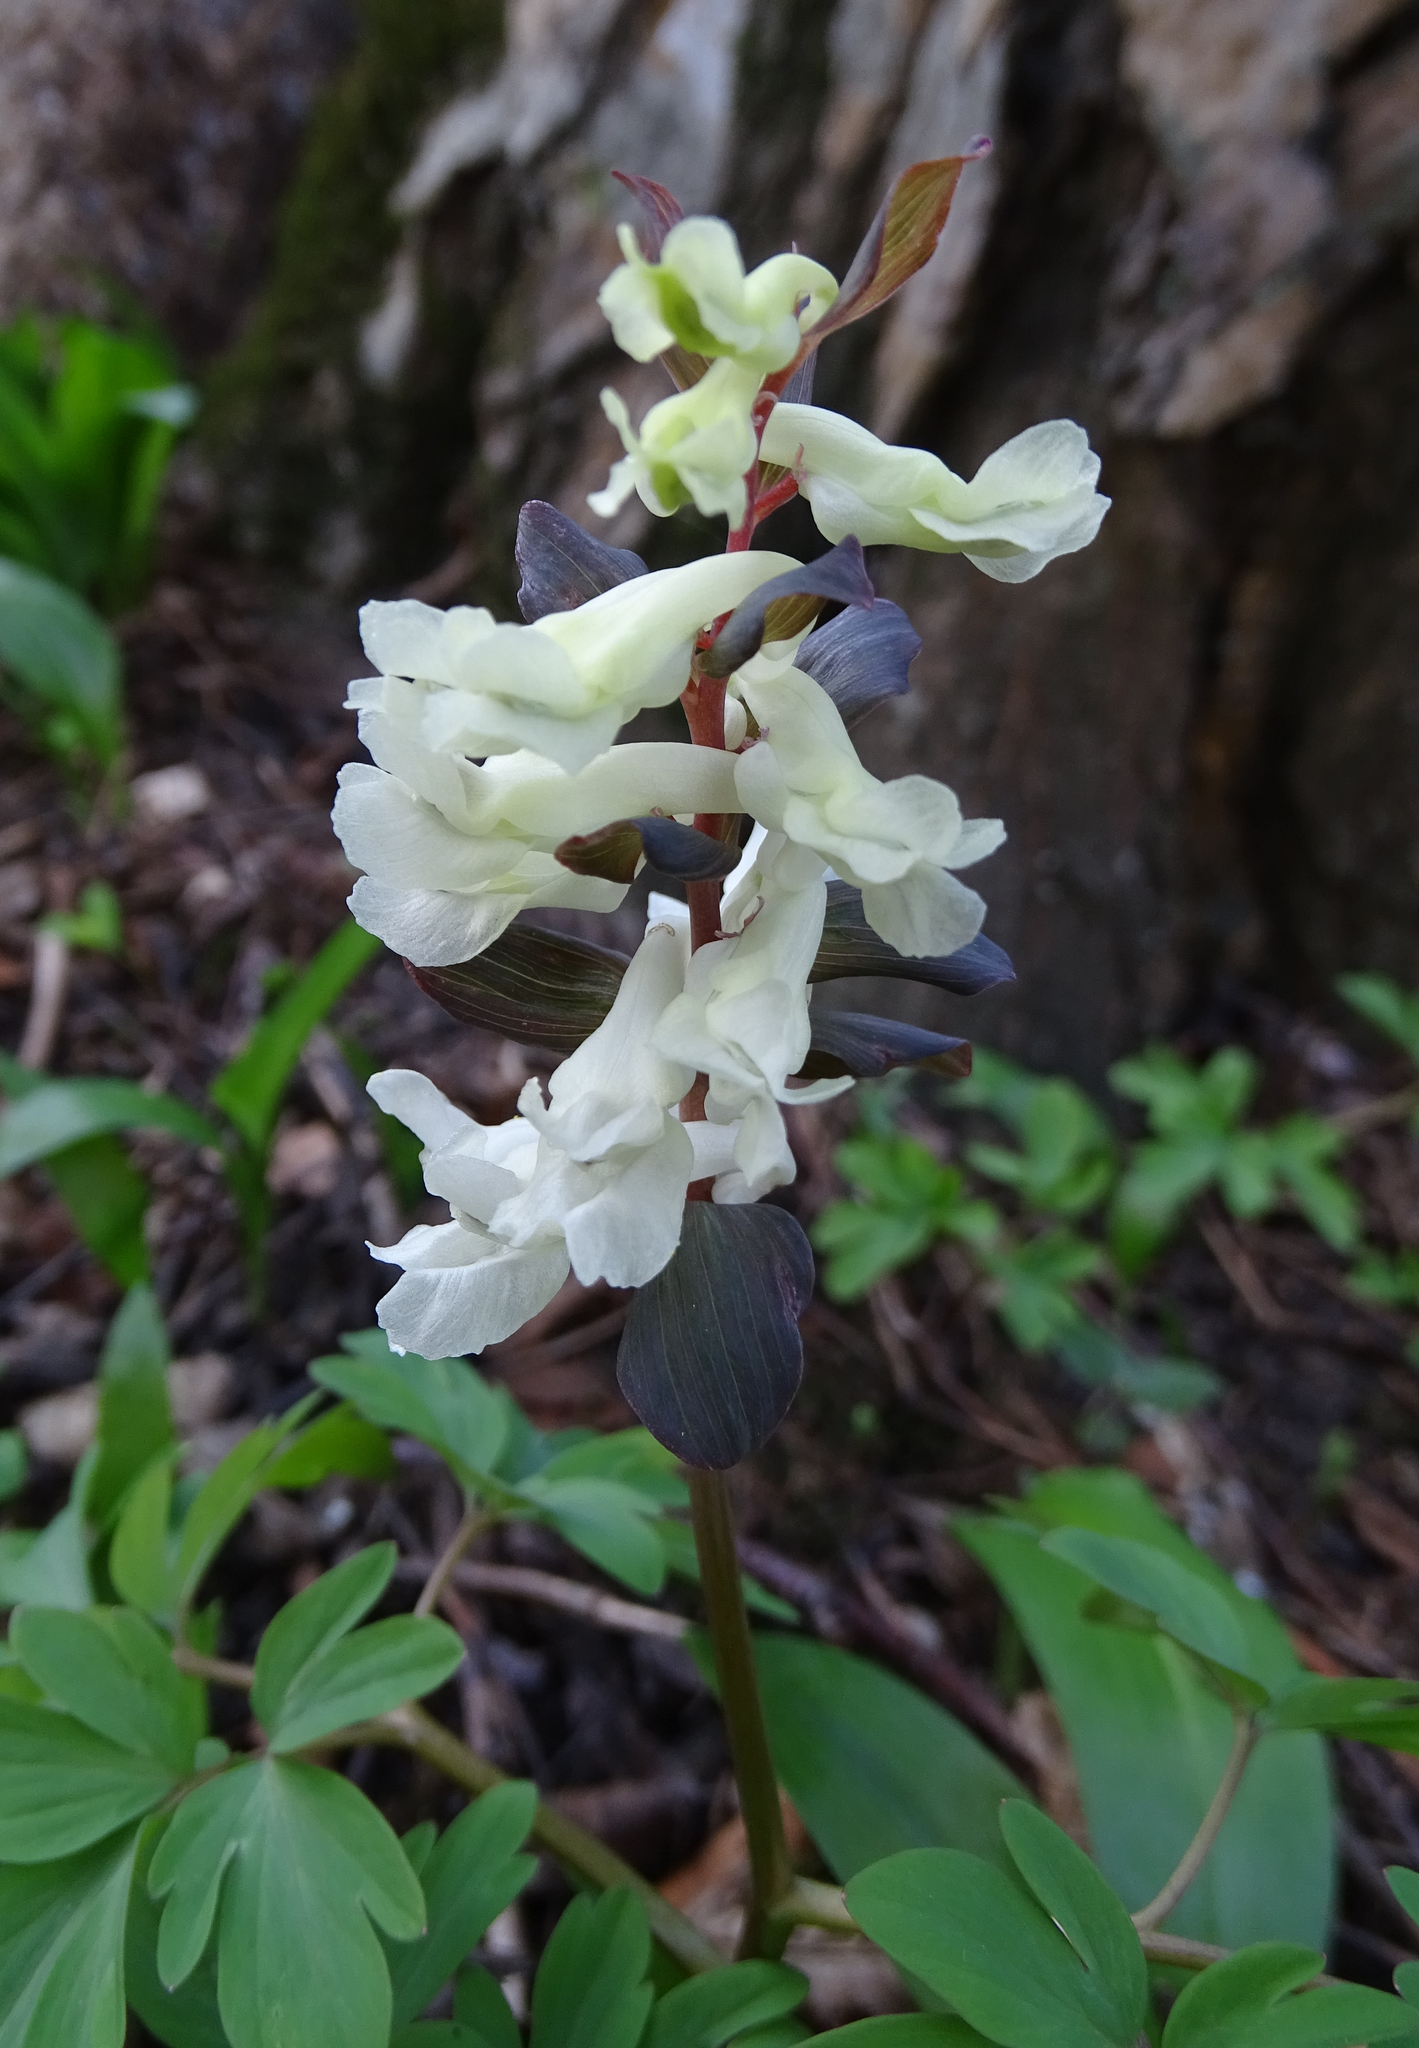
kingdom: Plantae
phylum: Tracheophyta
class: Magnoliopsida
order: Ranunculales
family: Papaveraceae
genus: Corydalis
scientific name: Corydalis cava
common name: Hollowroot
